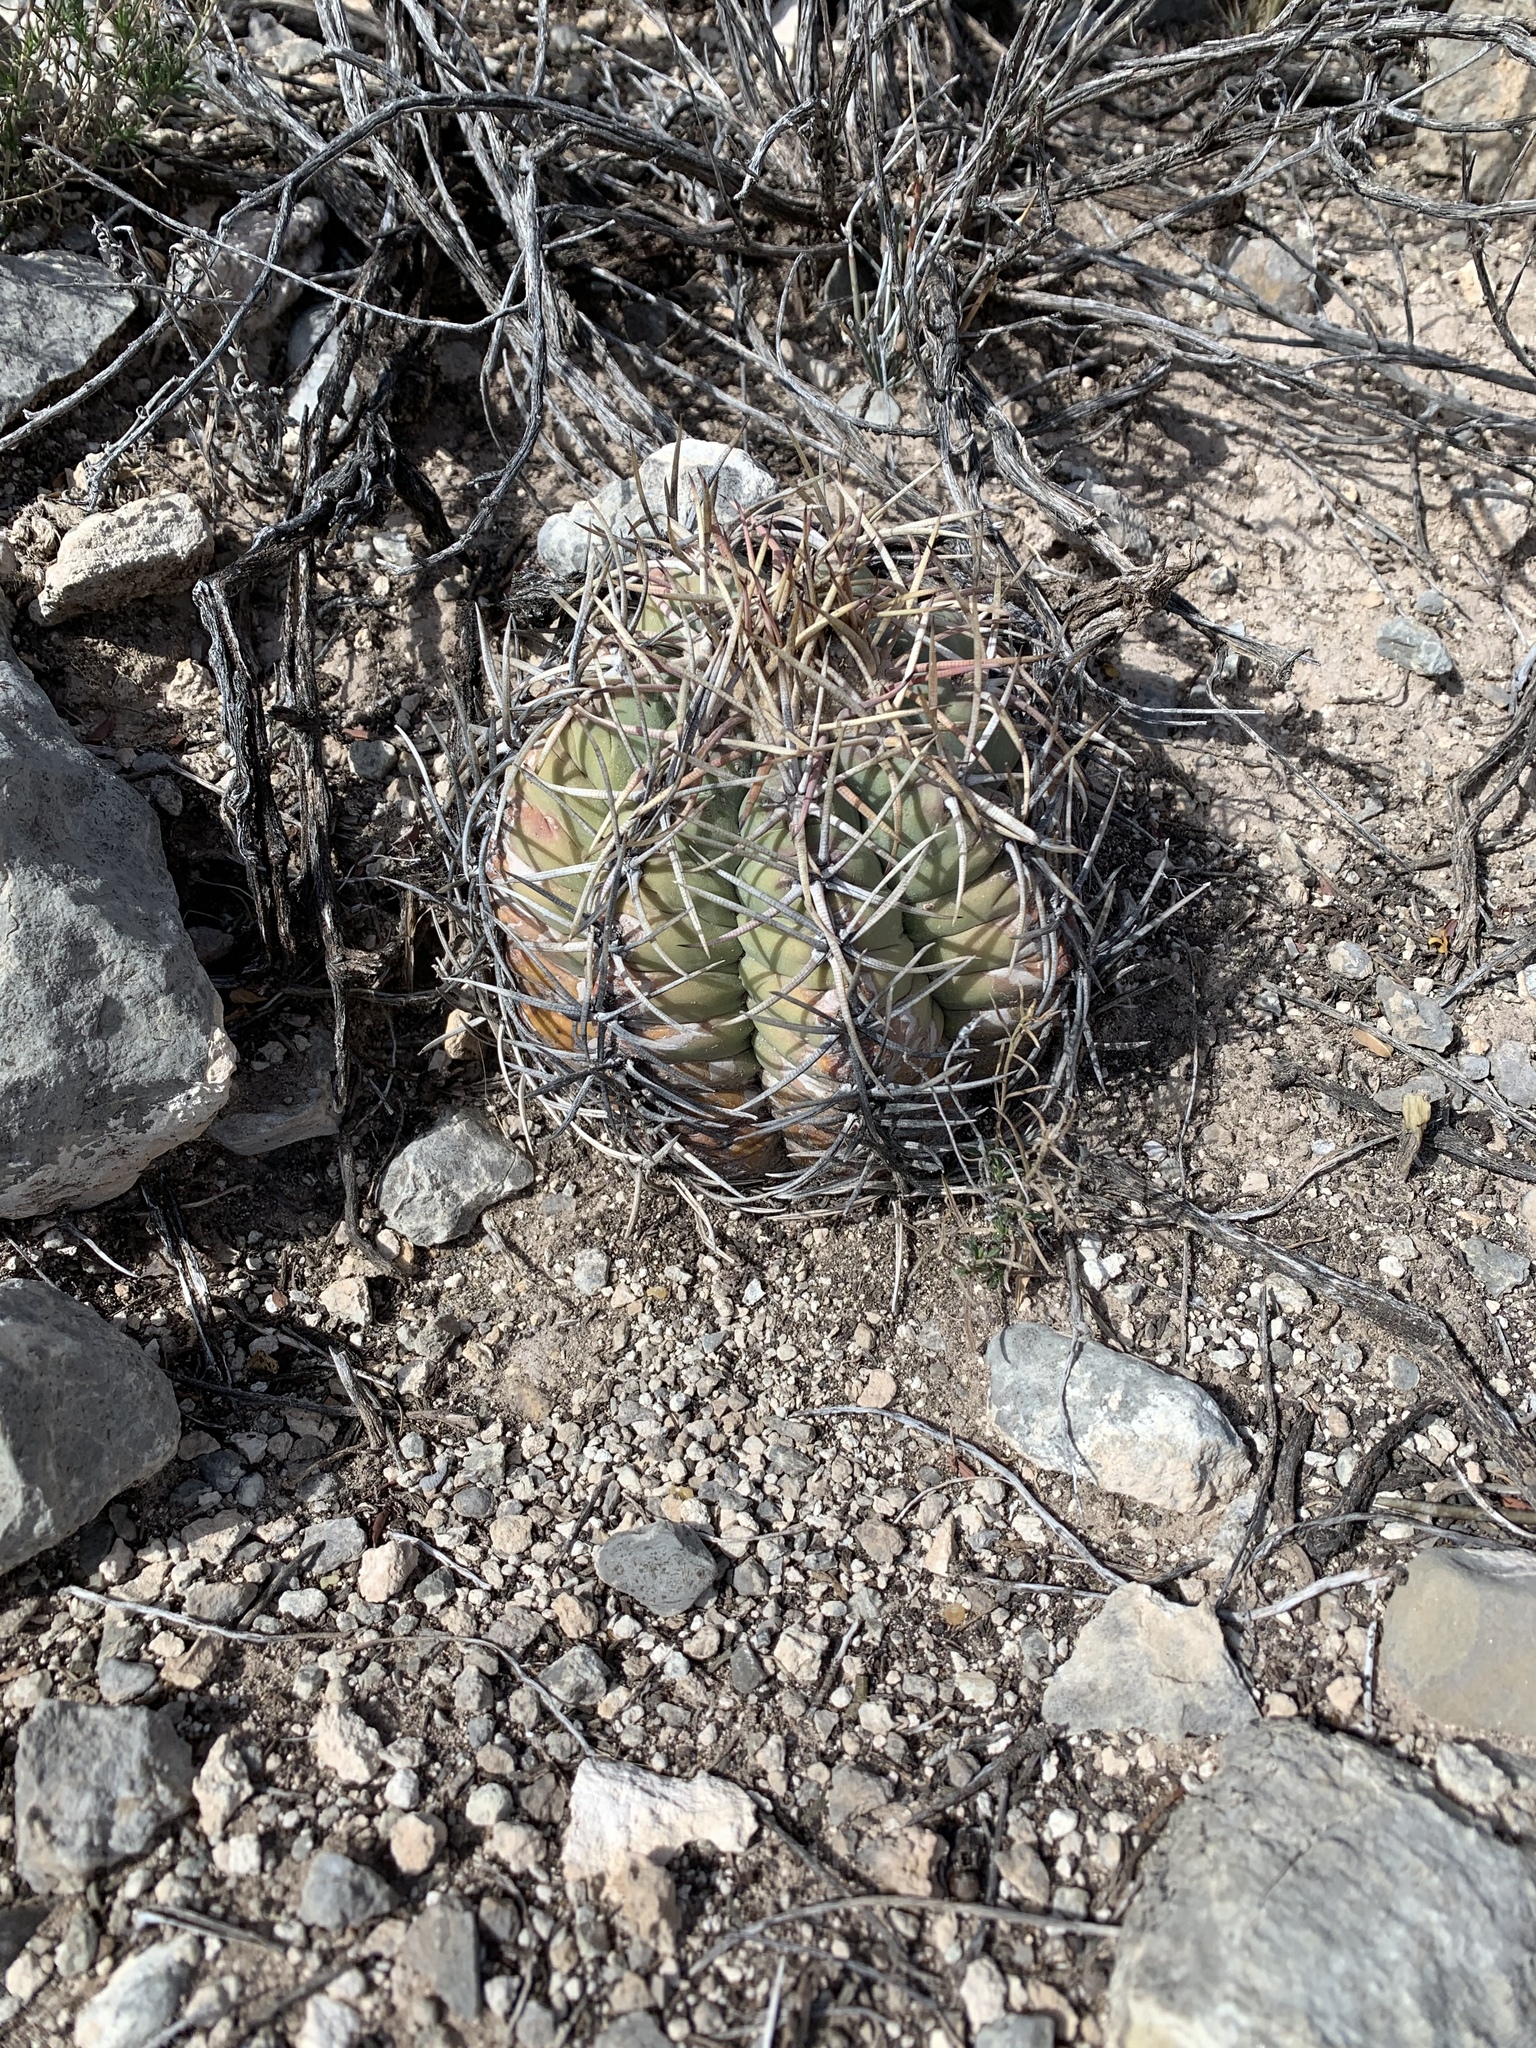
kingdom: Plantae
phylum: Tracheophyta
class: Magnoliopsida
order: Caryophyllales
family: Cactaceae
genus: Echinocactus
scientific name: Echinocactus horizonthalonius
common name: Devilshead
